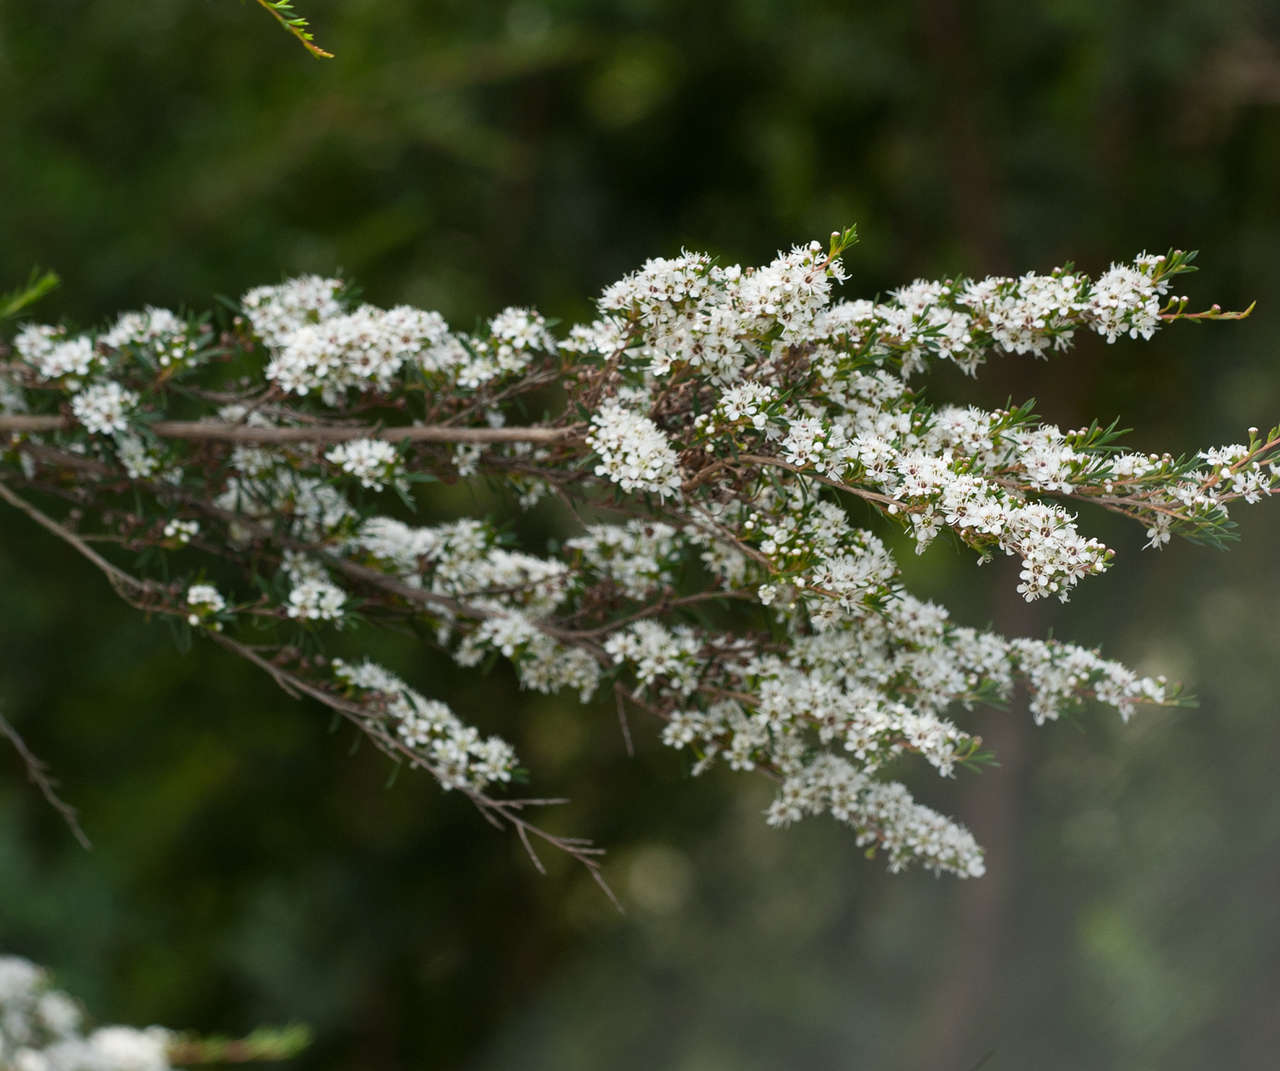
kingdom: Plantae
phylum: Tracheophyta
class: Magnoliopsida
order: Myrtales
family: Myrtaceae
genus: Kunzea
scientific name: Kunzea leptospermoides
